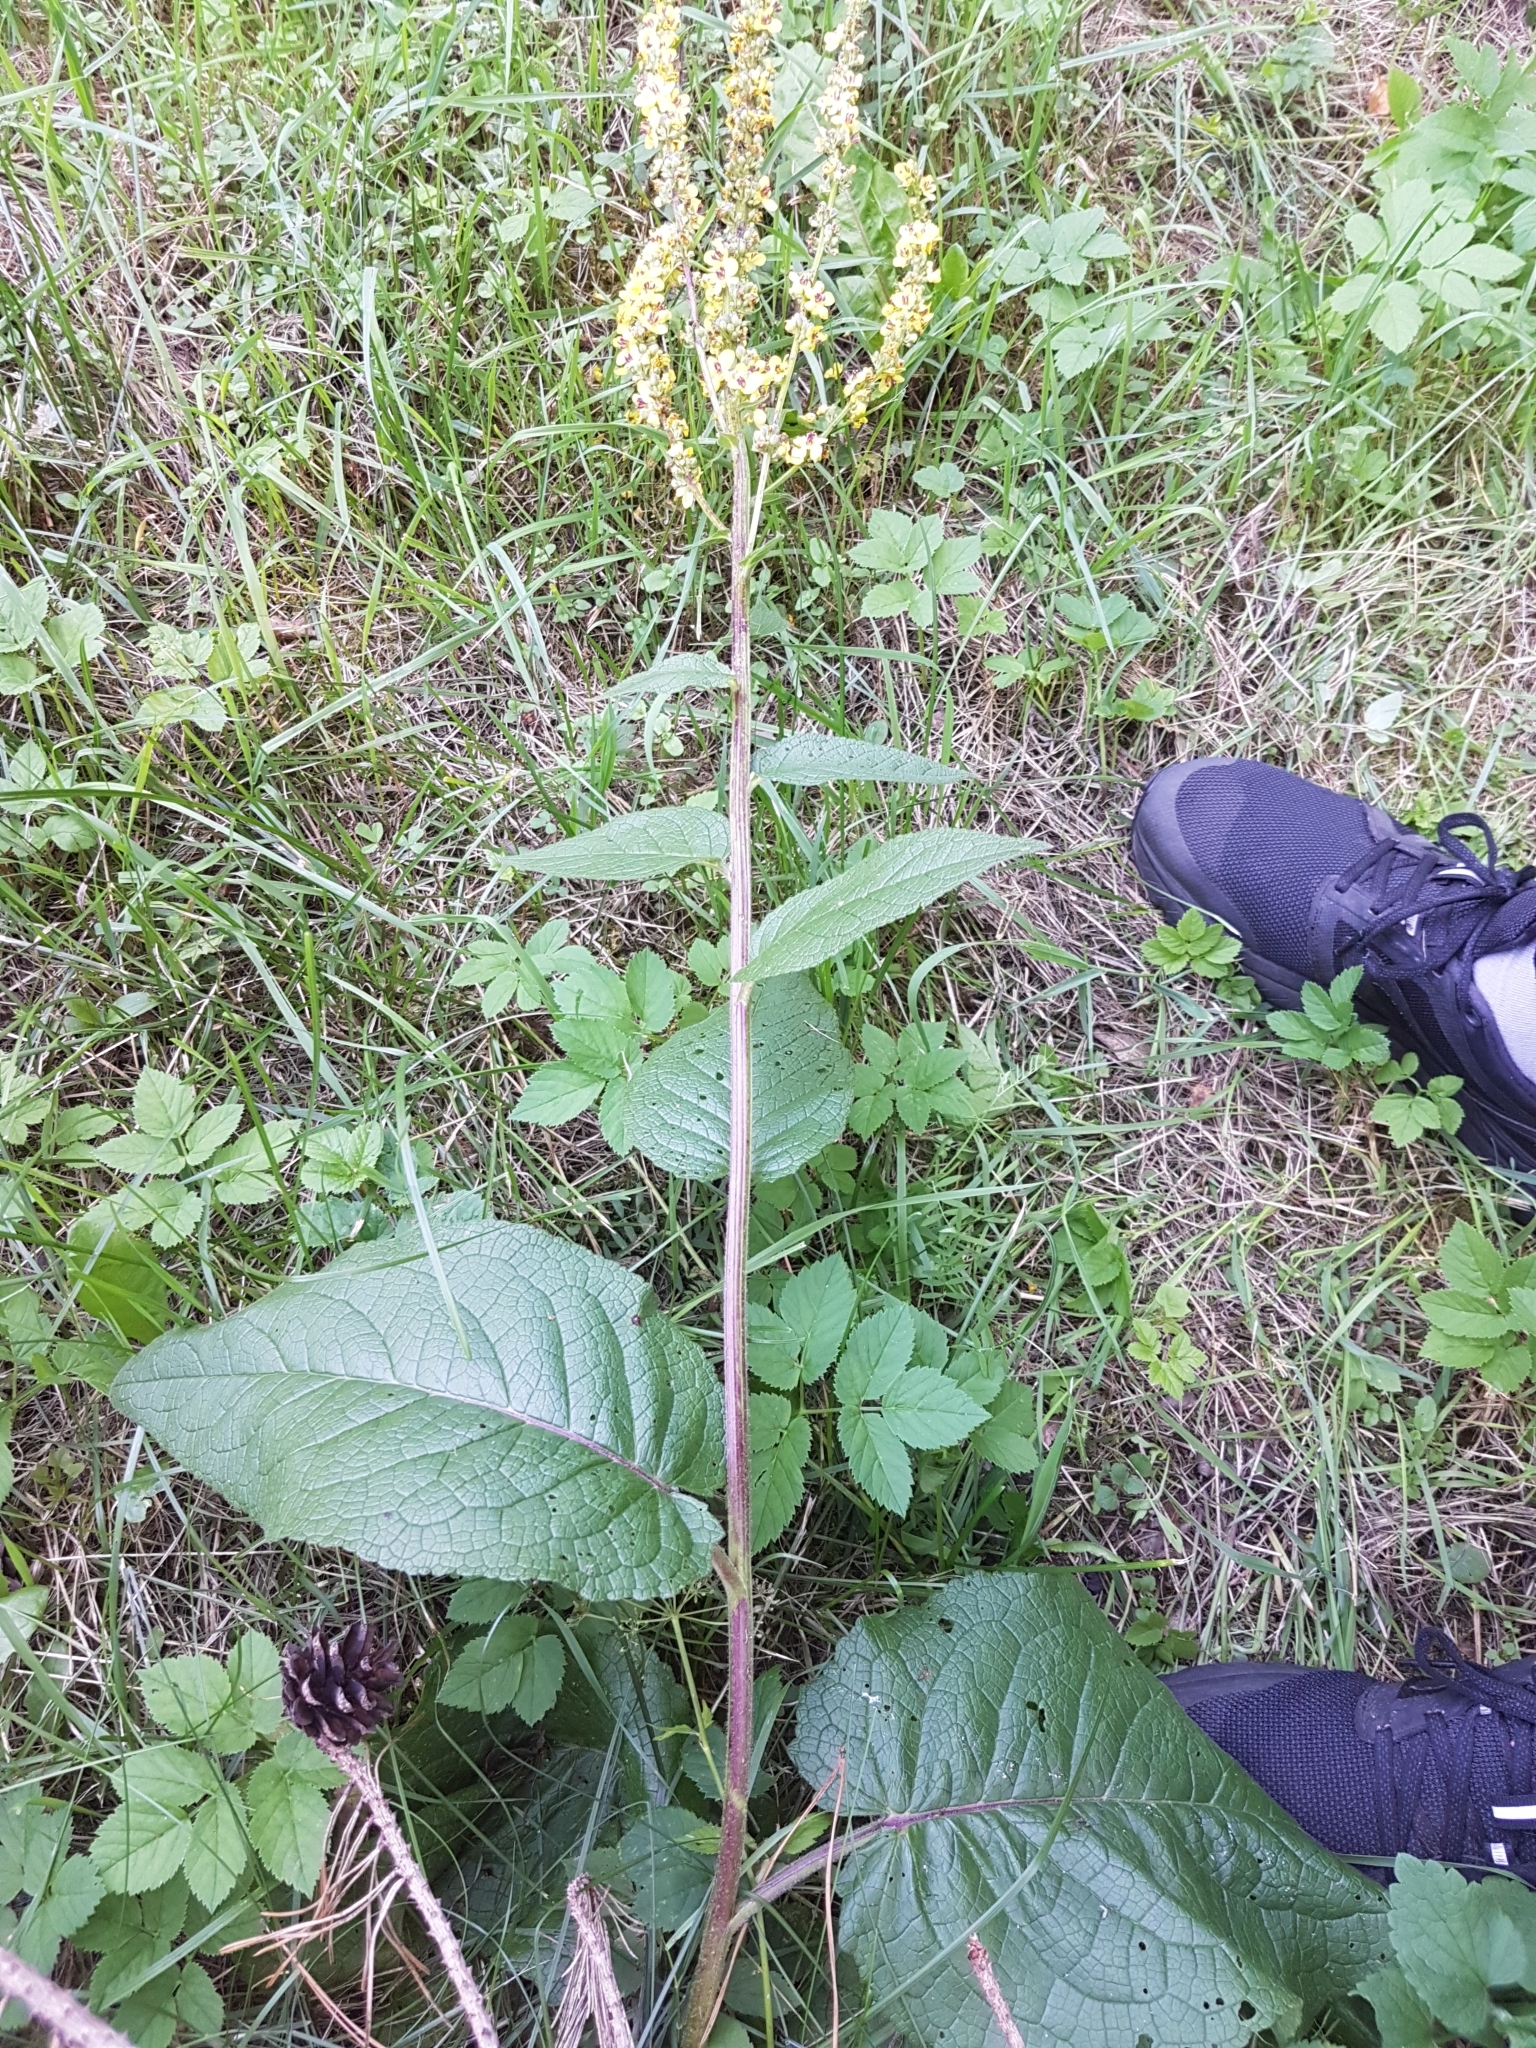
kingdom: Plantae
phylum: Tracheophyta
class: Magnoliopsida
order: Lamiales
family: Scrophulariaceae
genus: Verbascum
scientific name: Verbascum nigrum
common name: Dark mullein
